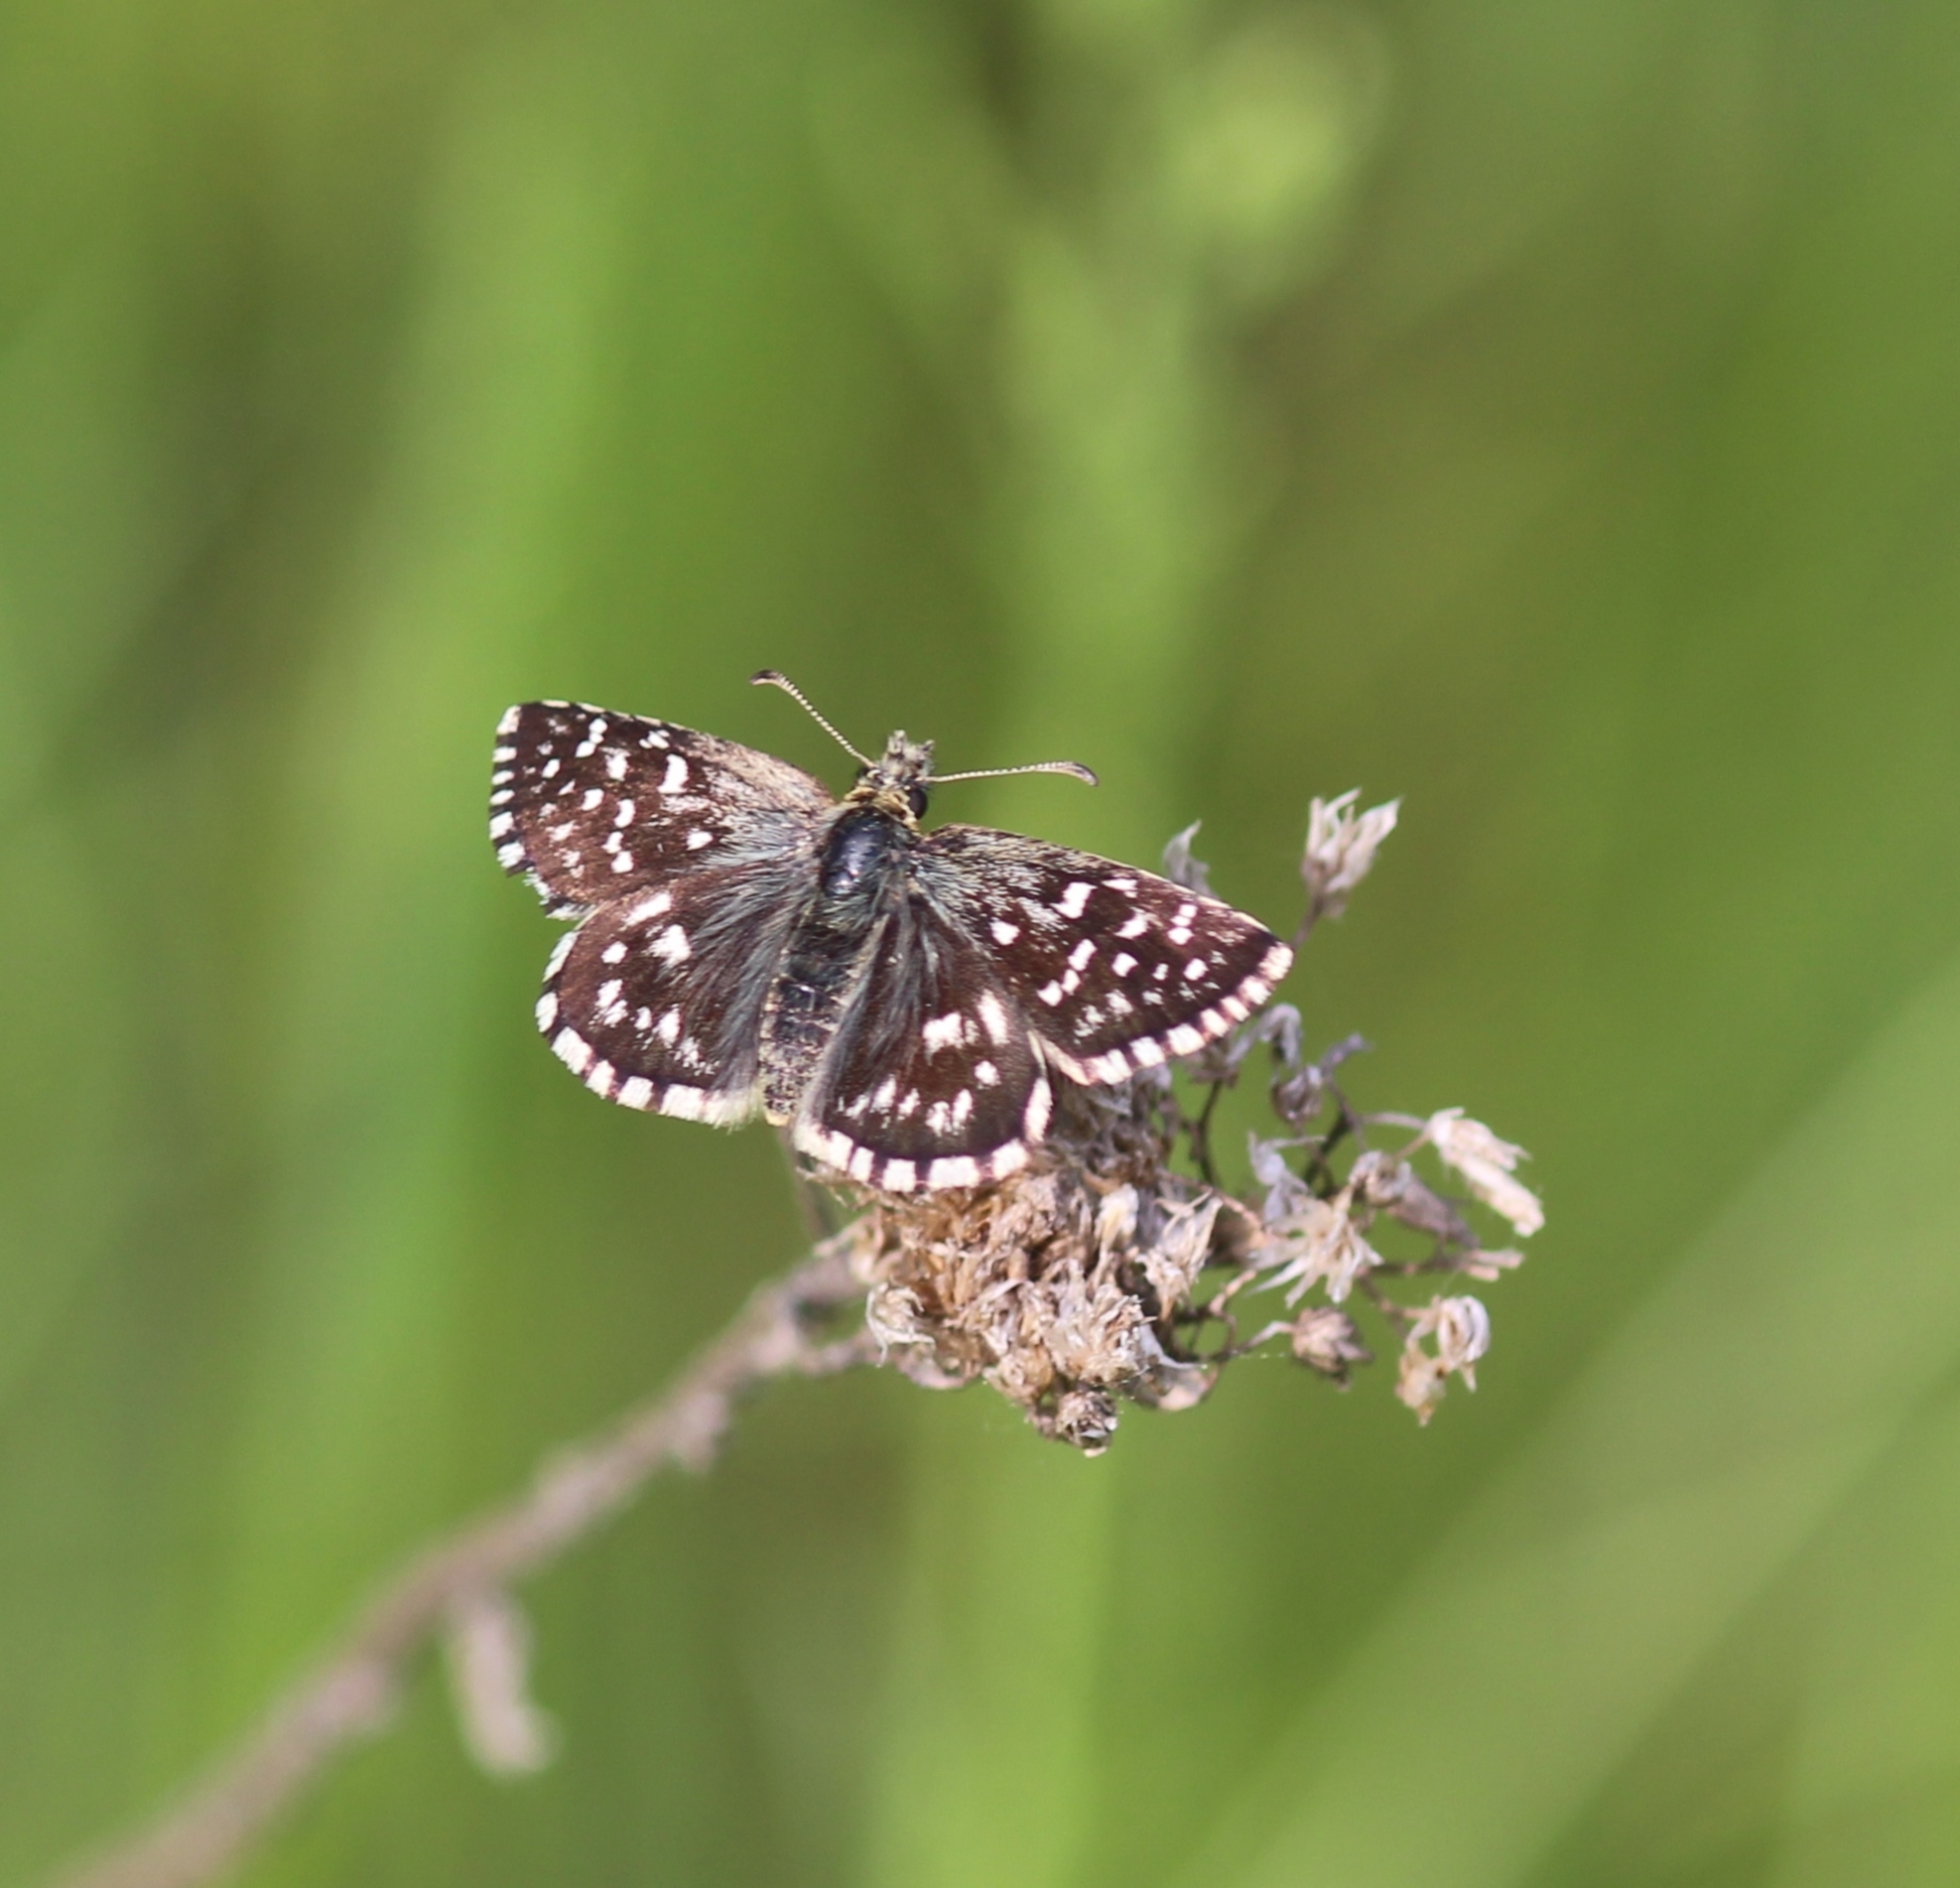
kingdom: Animalia
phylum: Arthropoda
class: Insecta
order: Lepidoptera
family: Hesperiidae
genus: Pyrgus
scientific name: Pyrgus malvae
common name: Grizzled skipper
